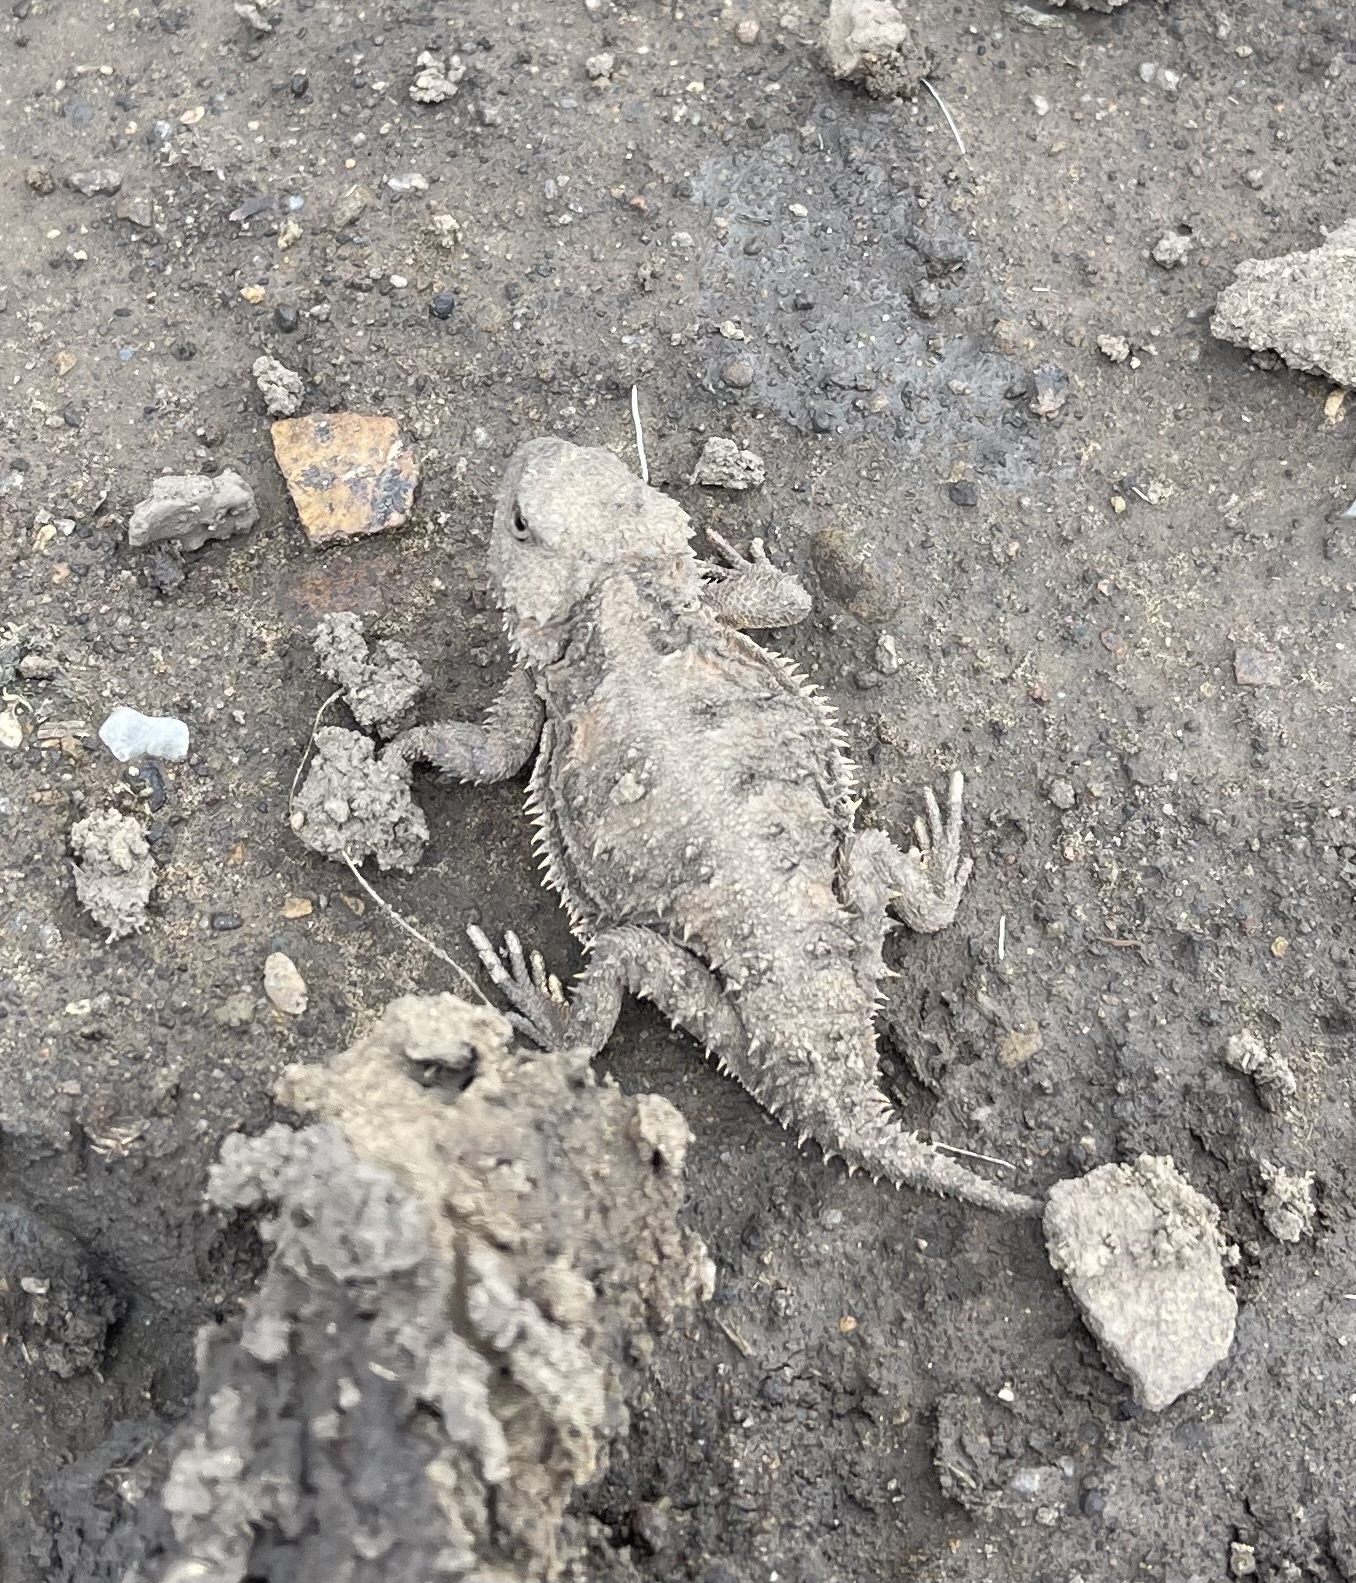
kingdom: Animalia
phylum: Chordata
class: Squamata
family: Phrynosomatidae
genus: Phrynosoma
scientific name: Phrynosoma hernandesi
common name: Greater short-horned lizard
